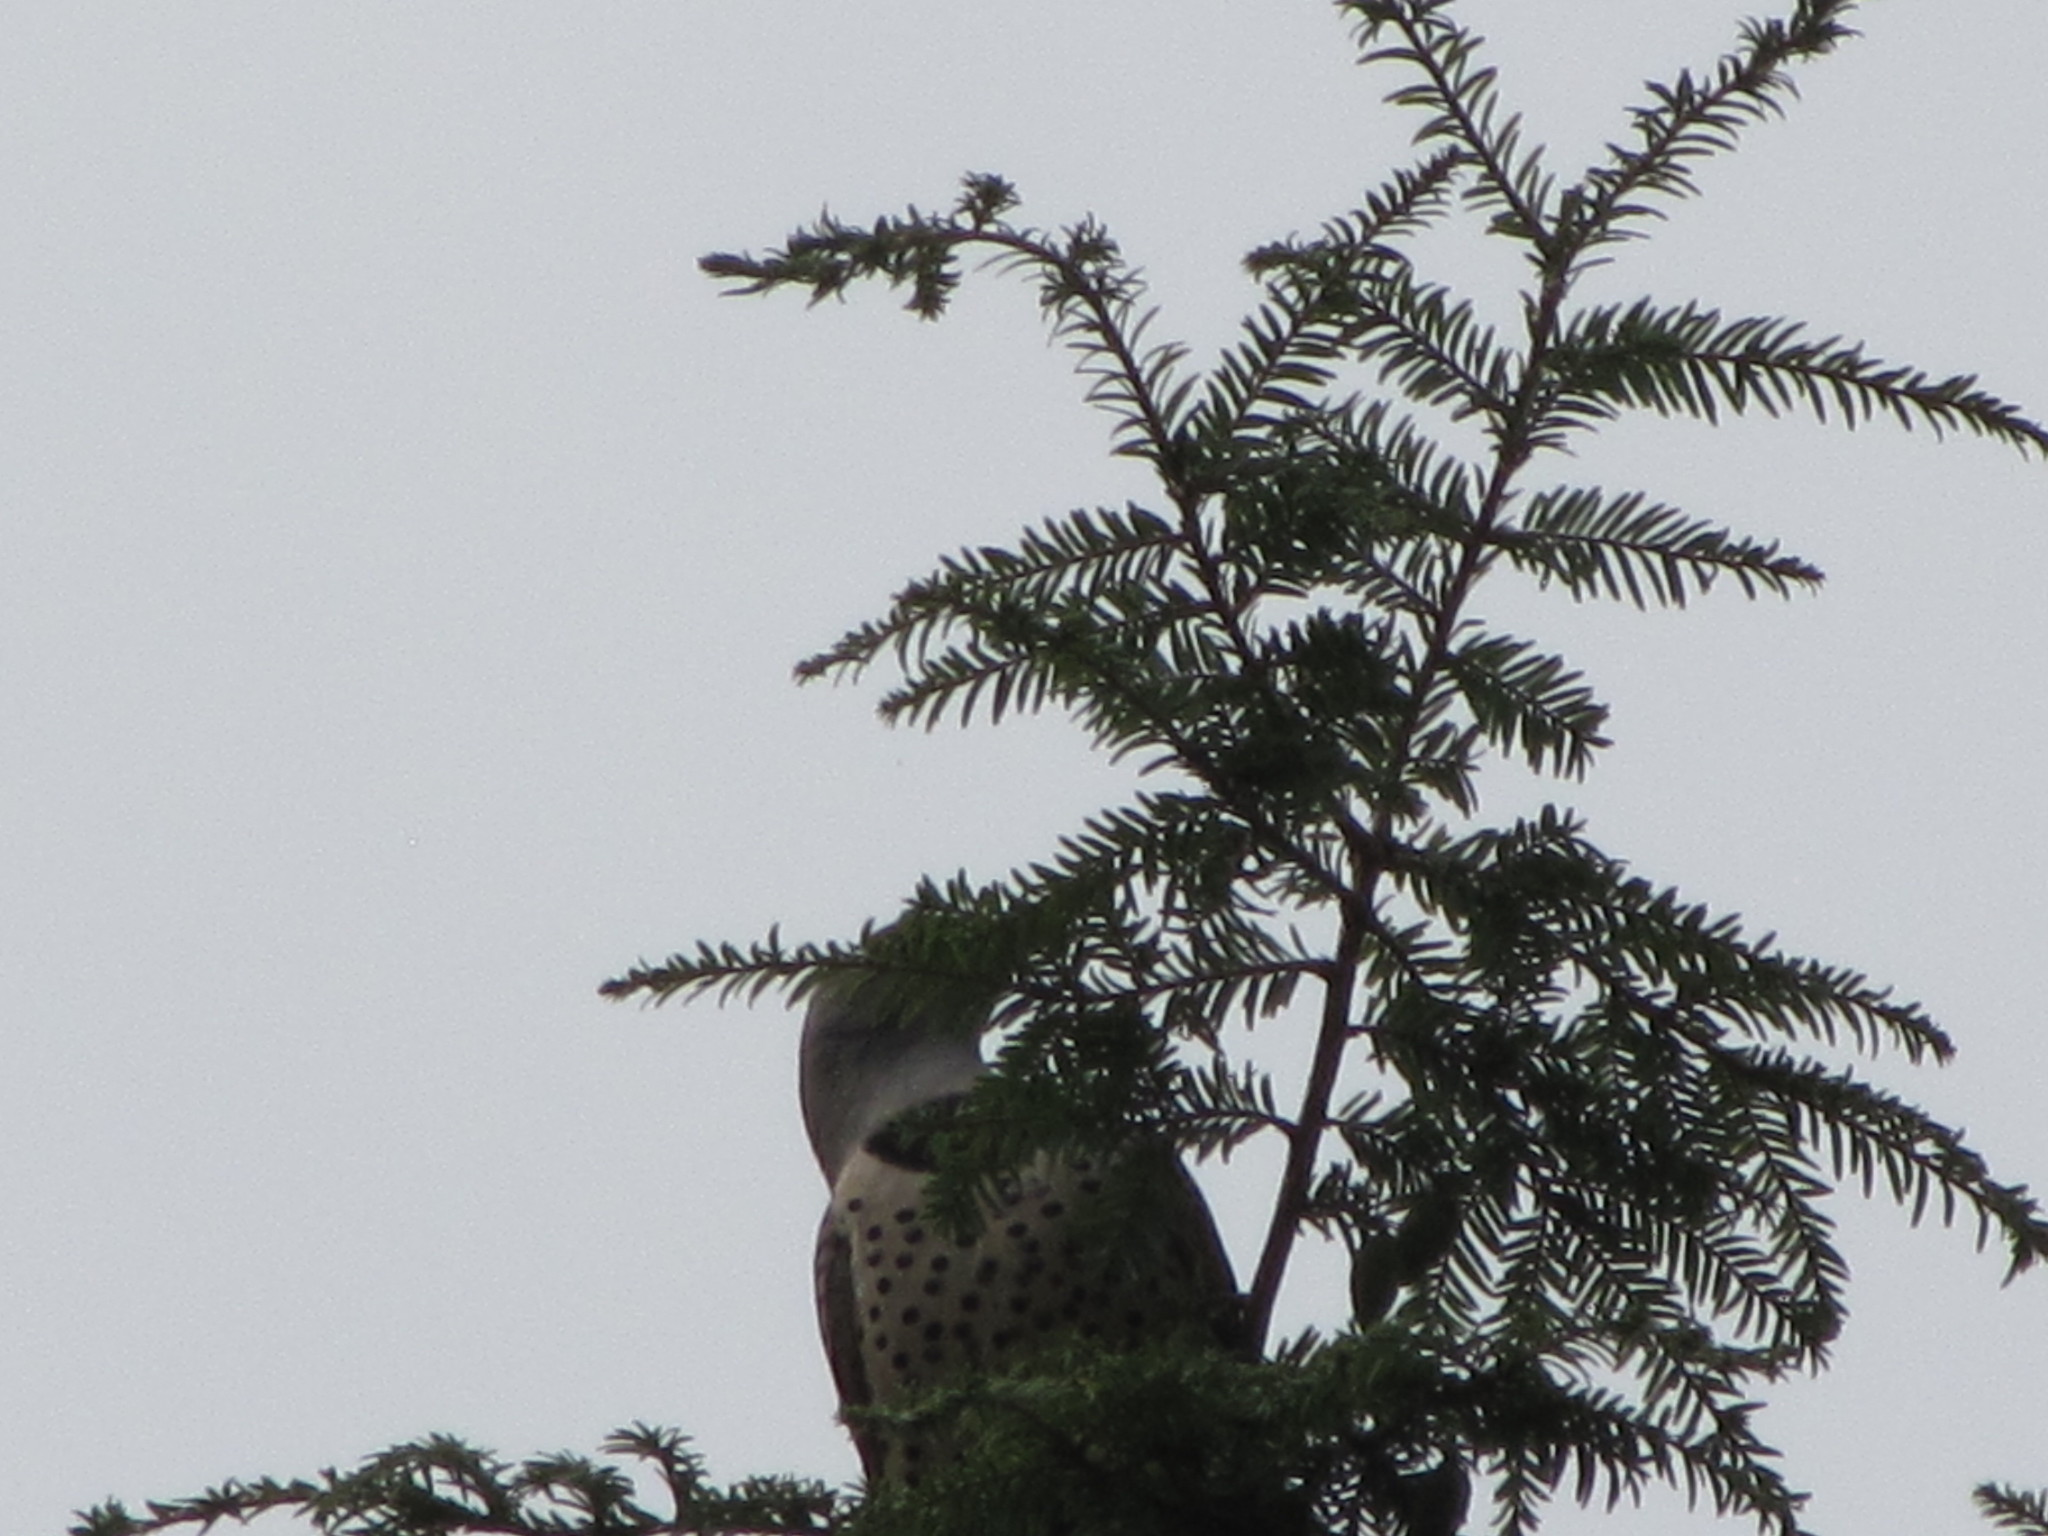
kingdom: Animalia
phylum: Chordata
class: Aves
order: Piciformes
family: Picidae
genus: Colaptes
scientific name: Colaptes auratus
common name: Northern flicker
